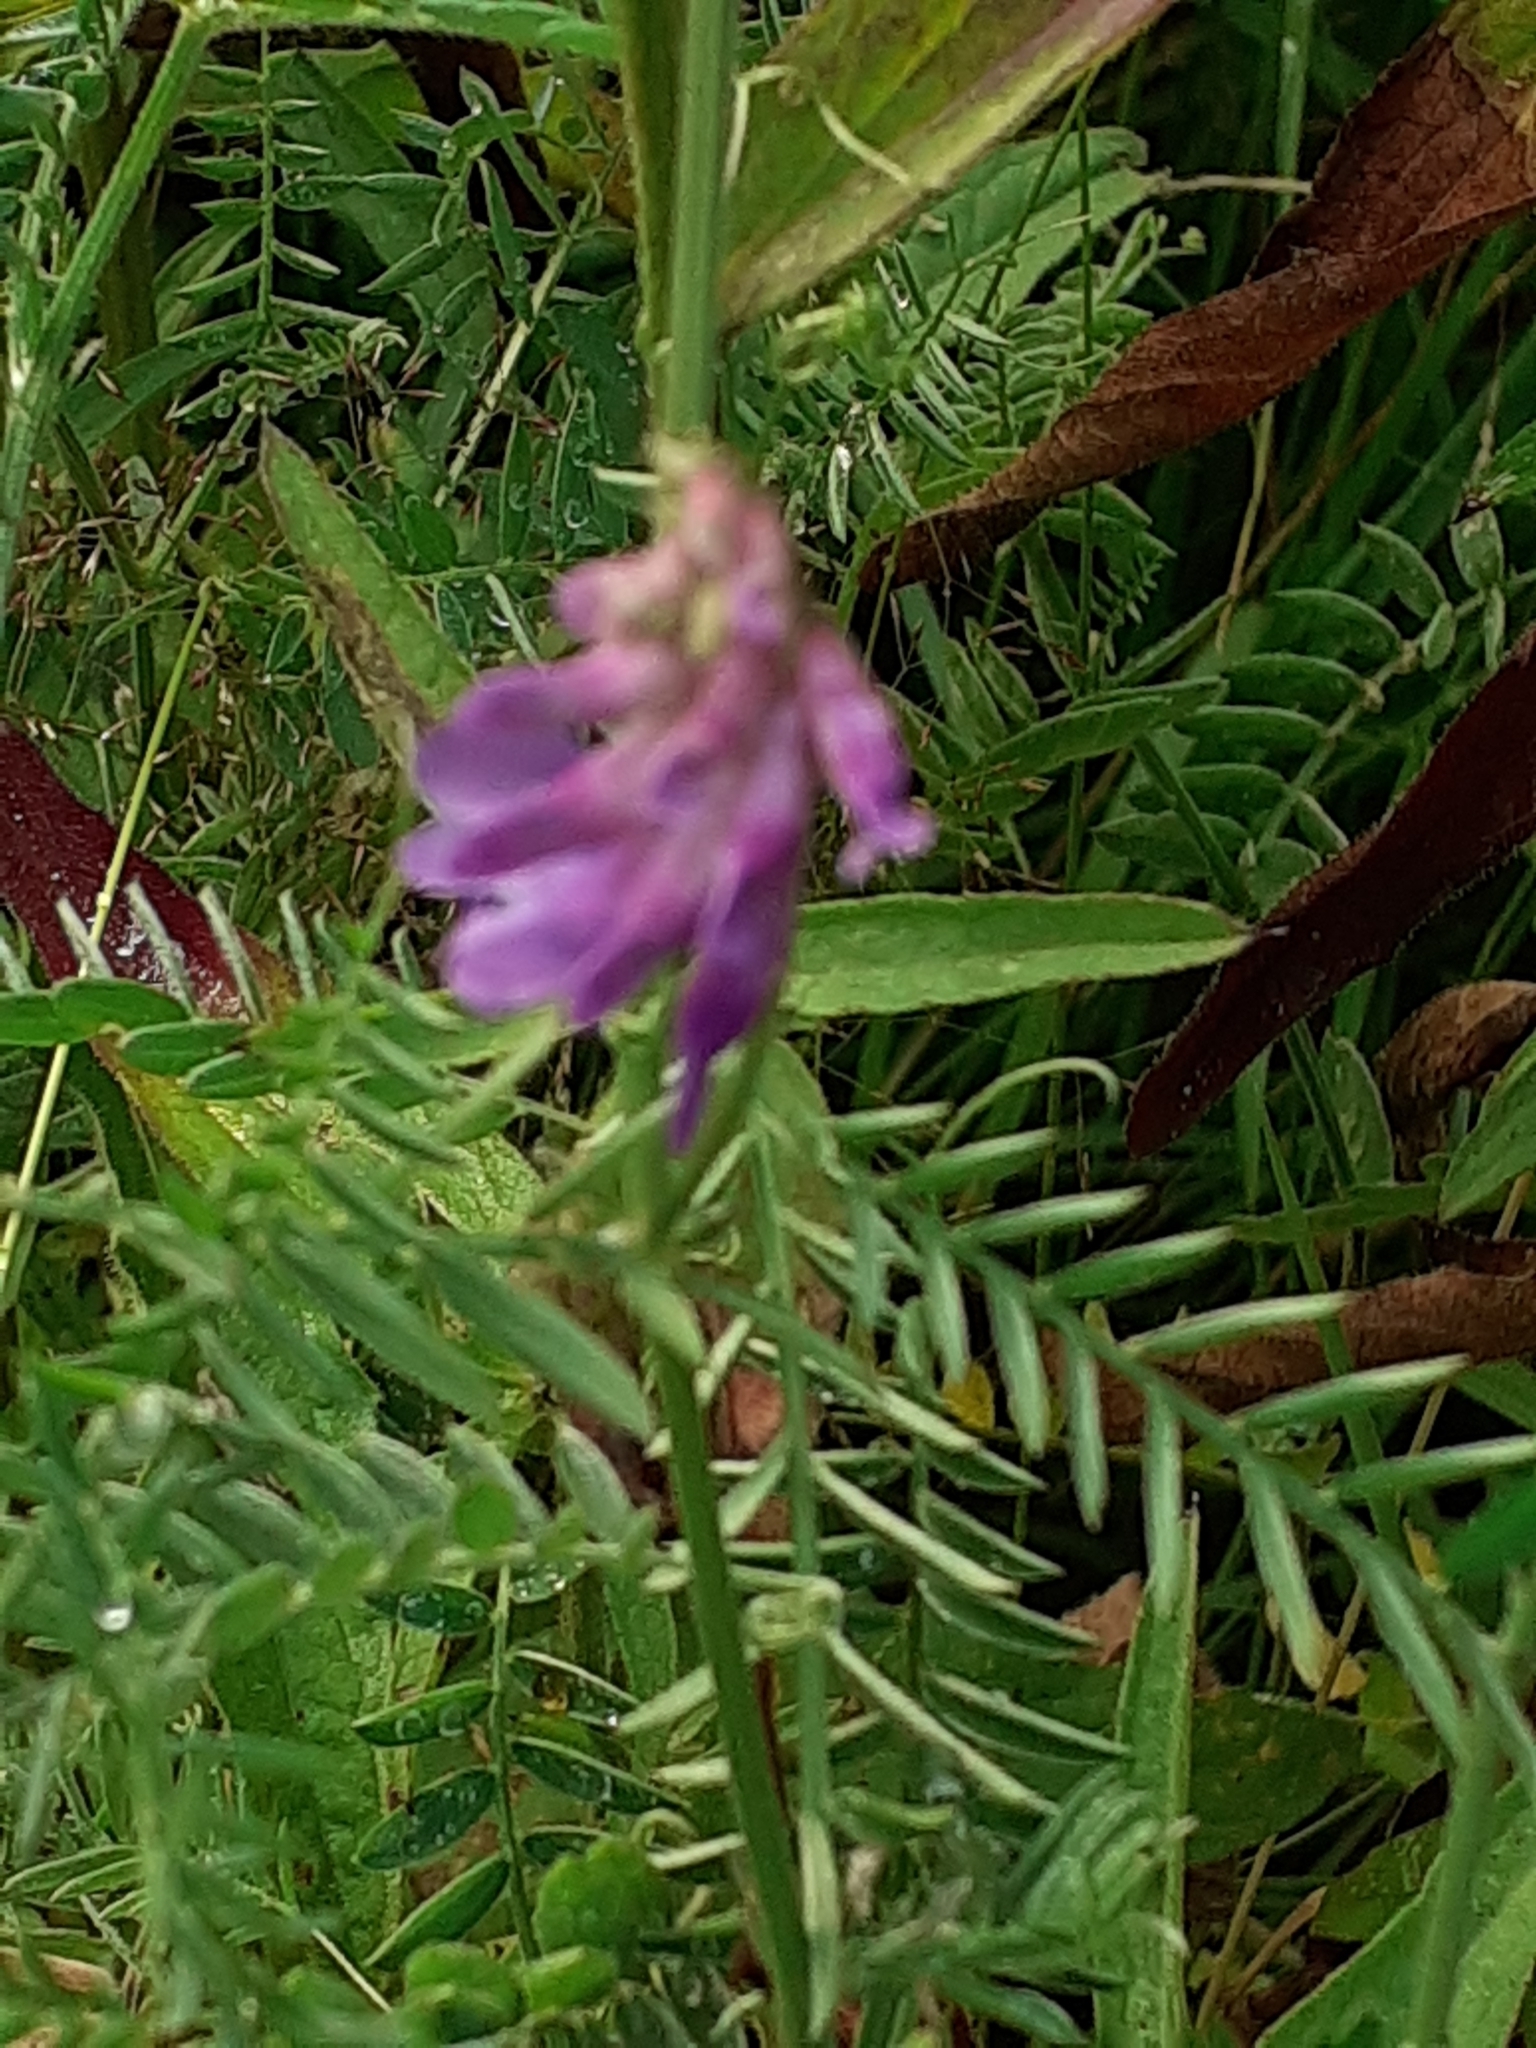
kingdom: Plantae
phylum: Tracheophyta
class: Magnoliopsida
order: Fabales
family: Fabaceae
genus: Vicia
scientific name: Vicia cracca
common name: Bird vetch
